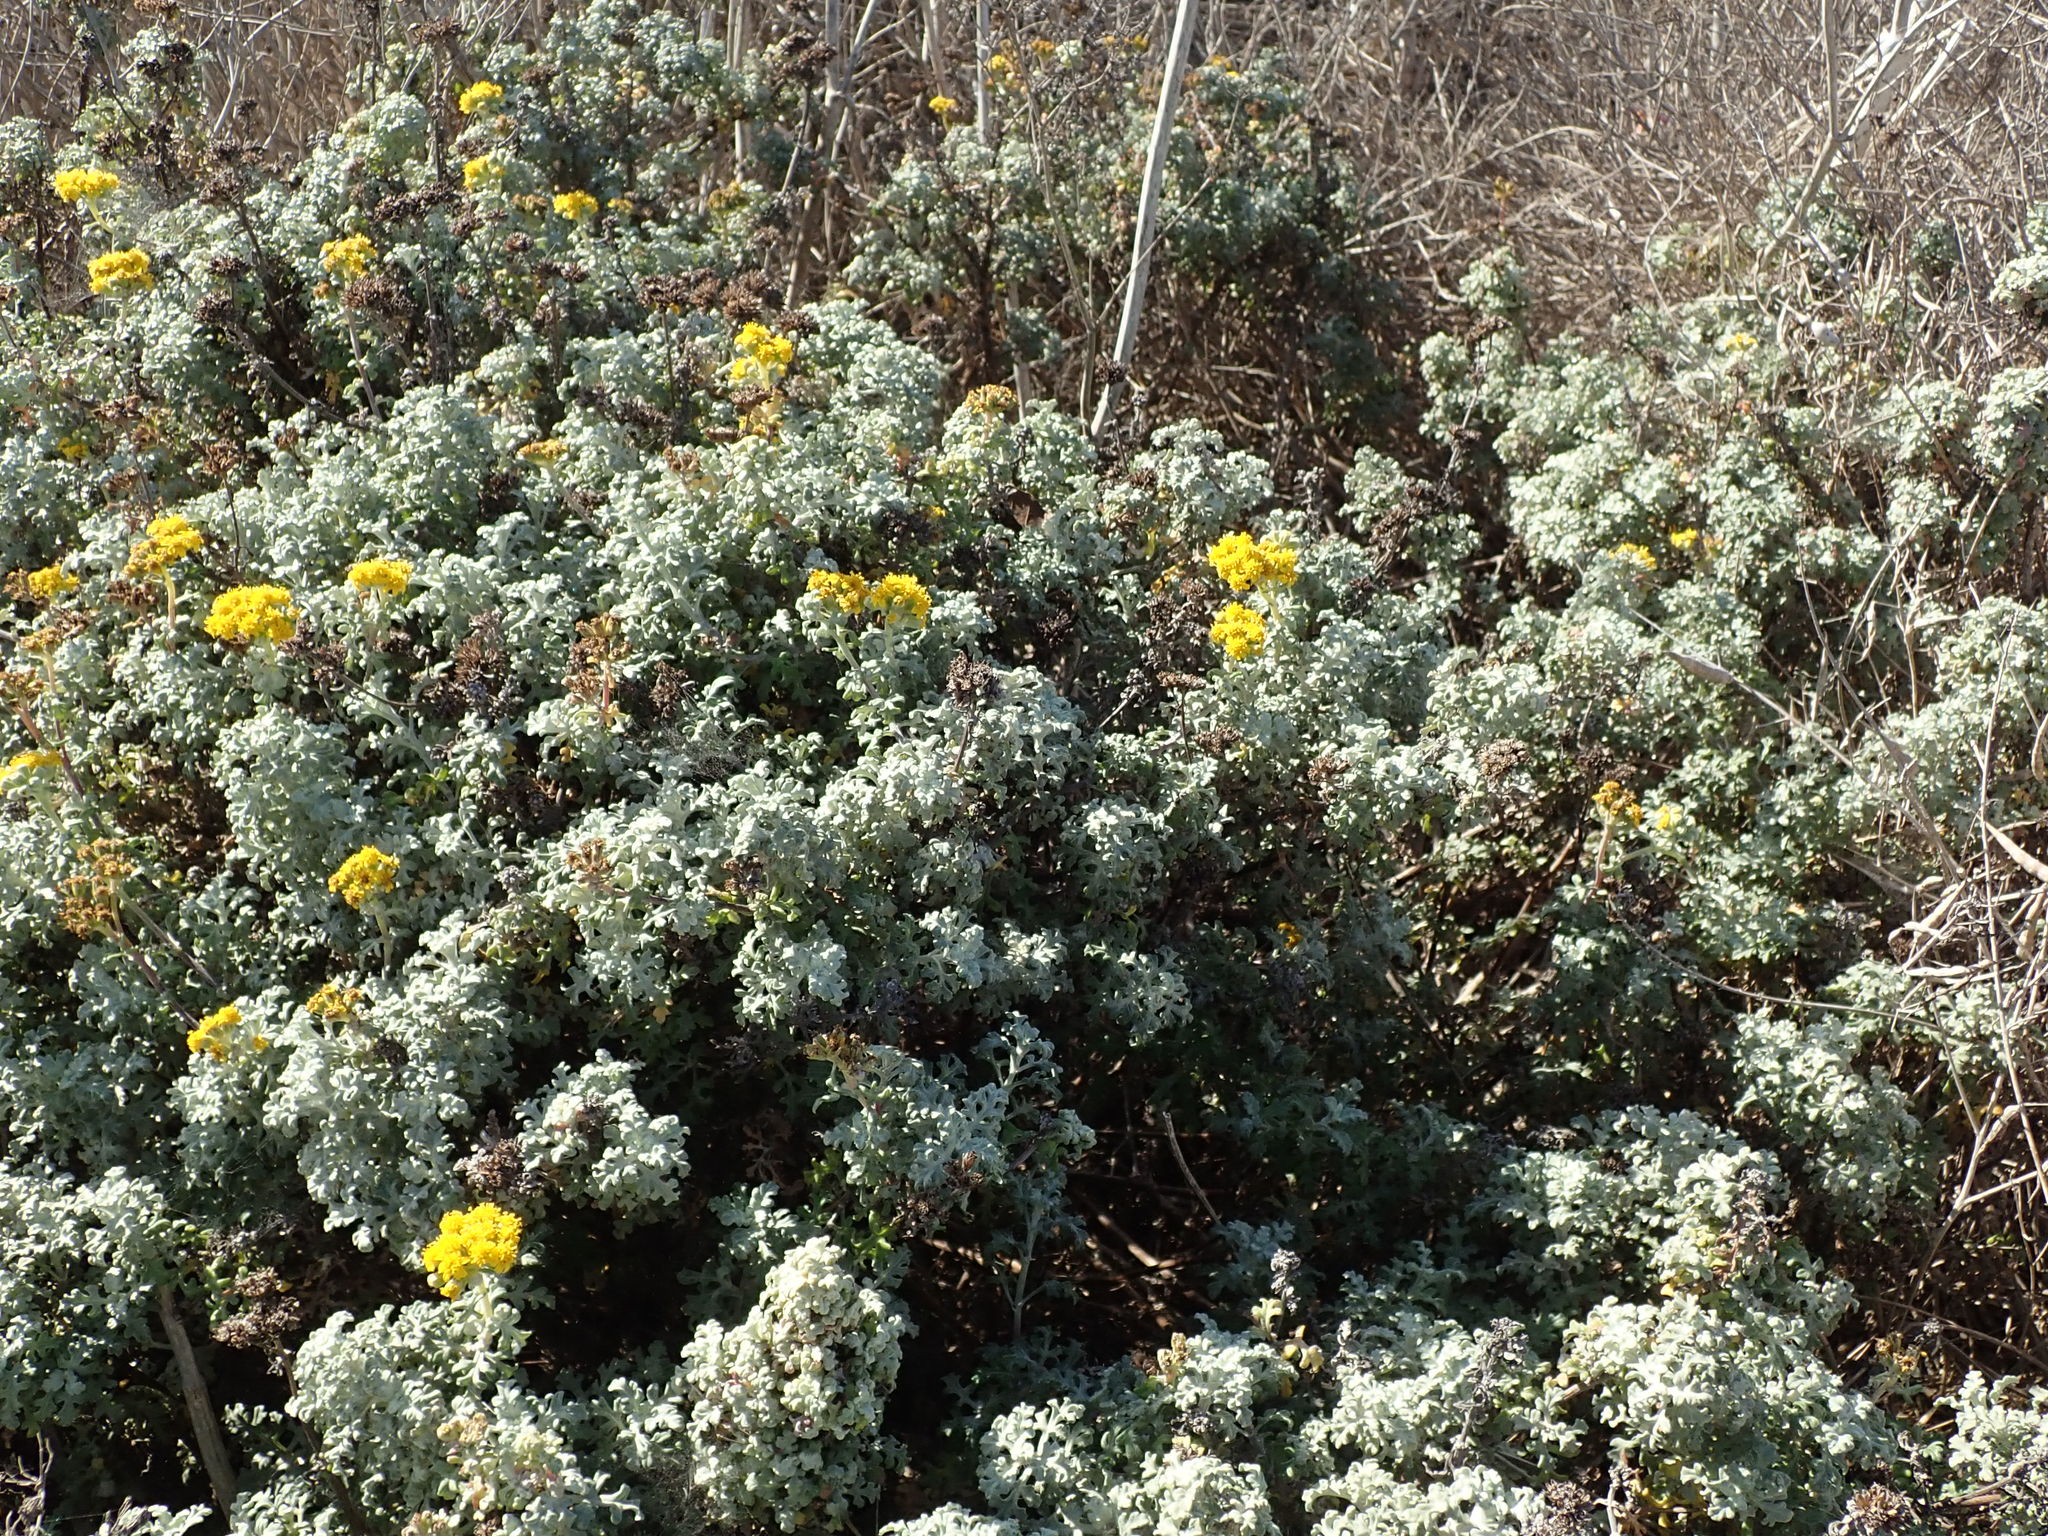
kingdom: Plantae
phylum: Tracheophyta
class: Magnoliopsida
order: Asterales
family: Asteraceae
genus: Eriophyllum
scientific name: Eriophyllum staechadifolium
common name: Lizardtail
